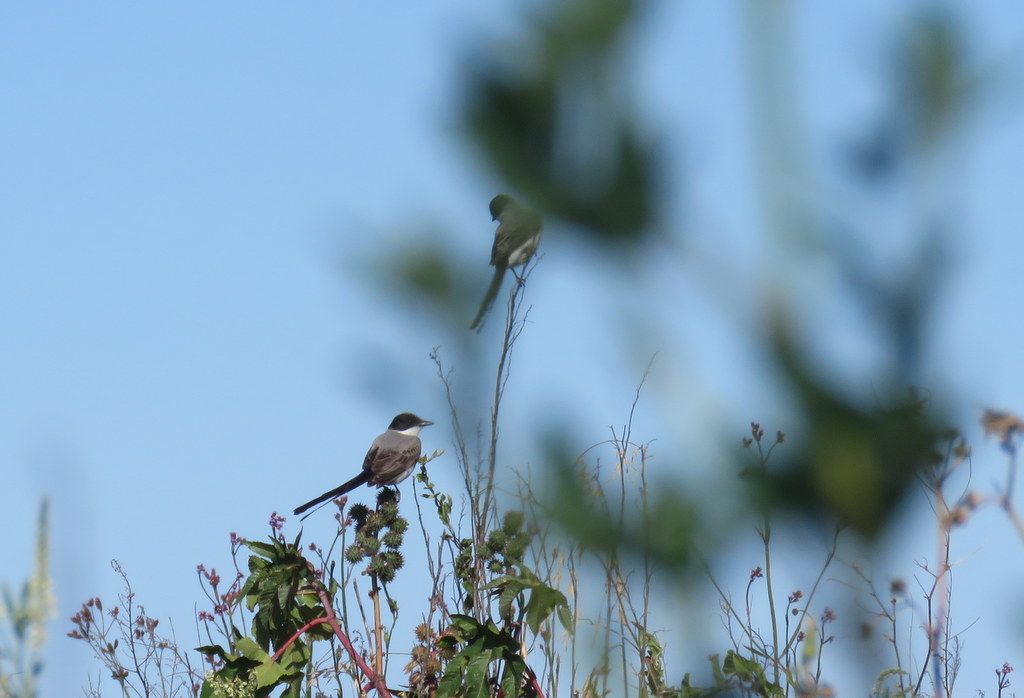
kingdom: Animalia
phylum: Chordata
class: Aves
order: Passeriformes
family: Tyrannidae
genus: Tyrannus
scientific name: Tyrannus savana
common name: Fork-tailed flycatcher
